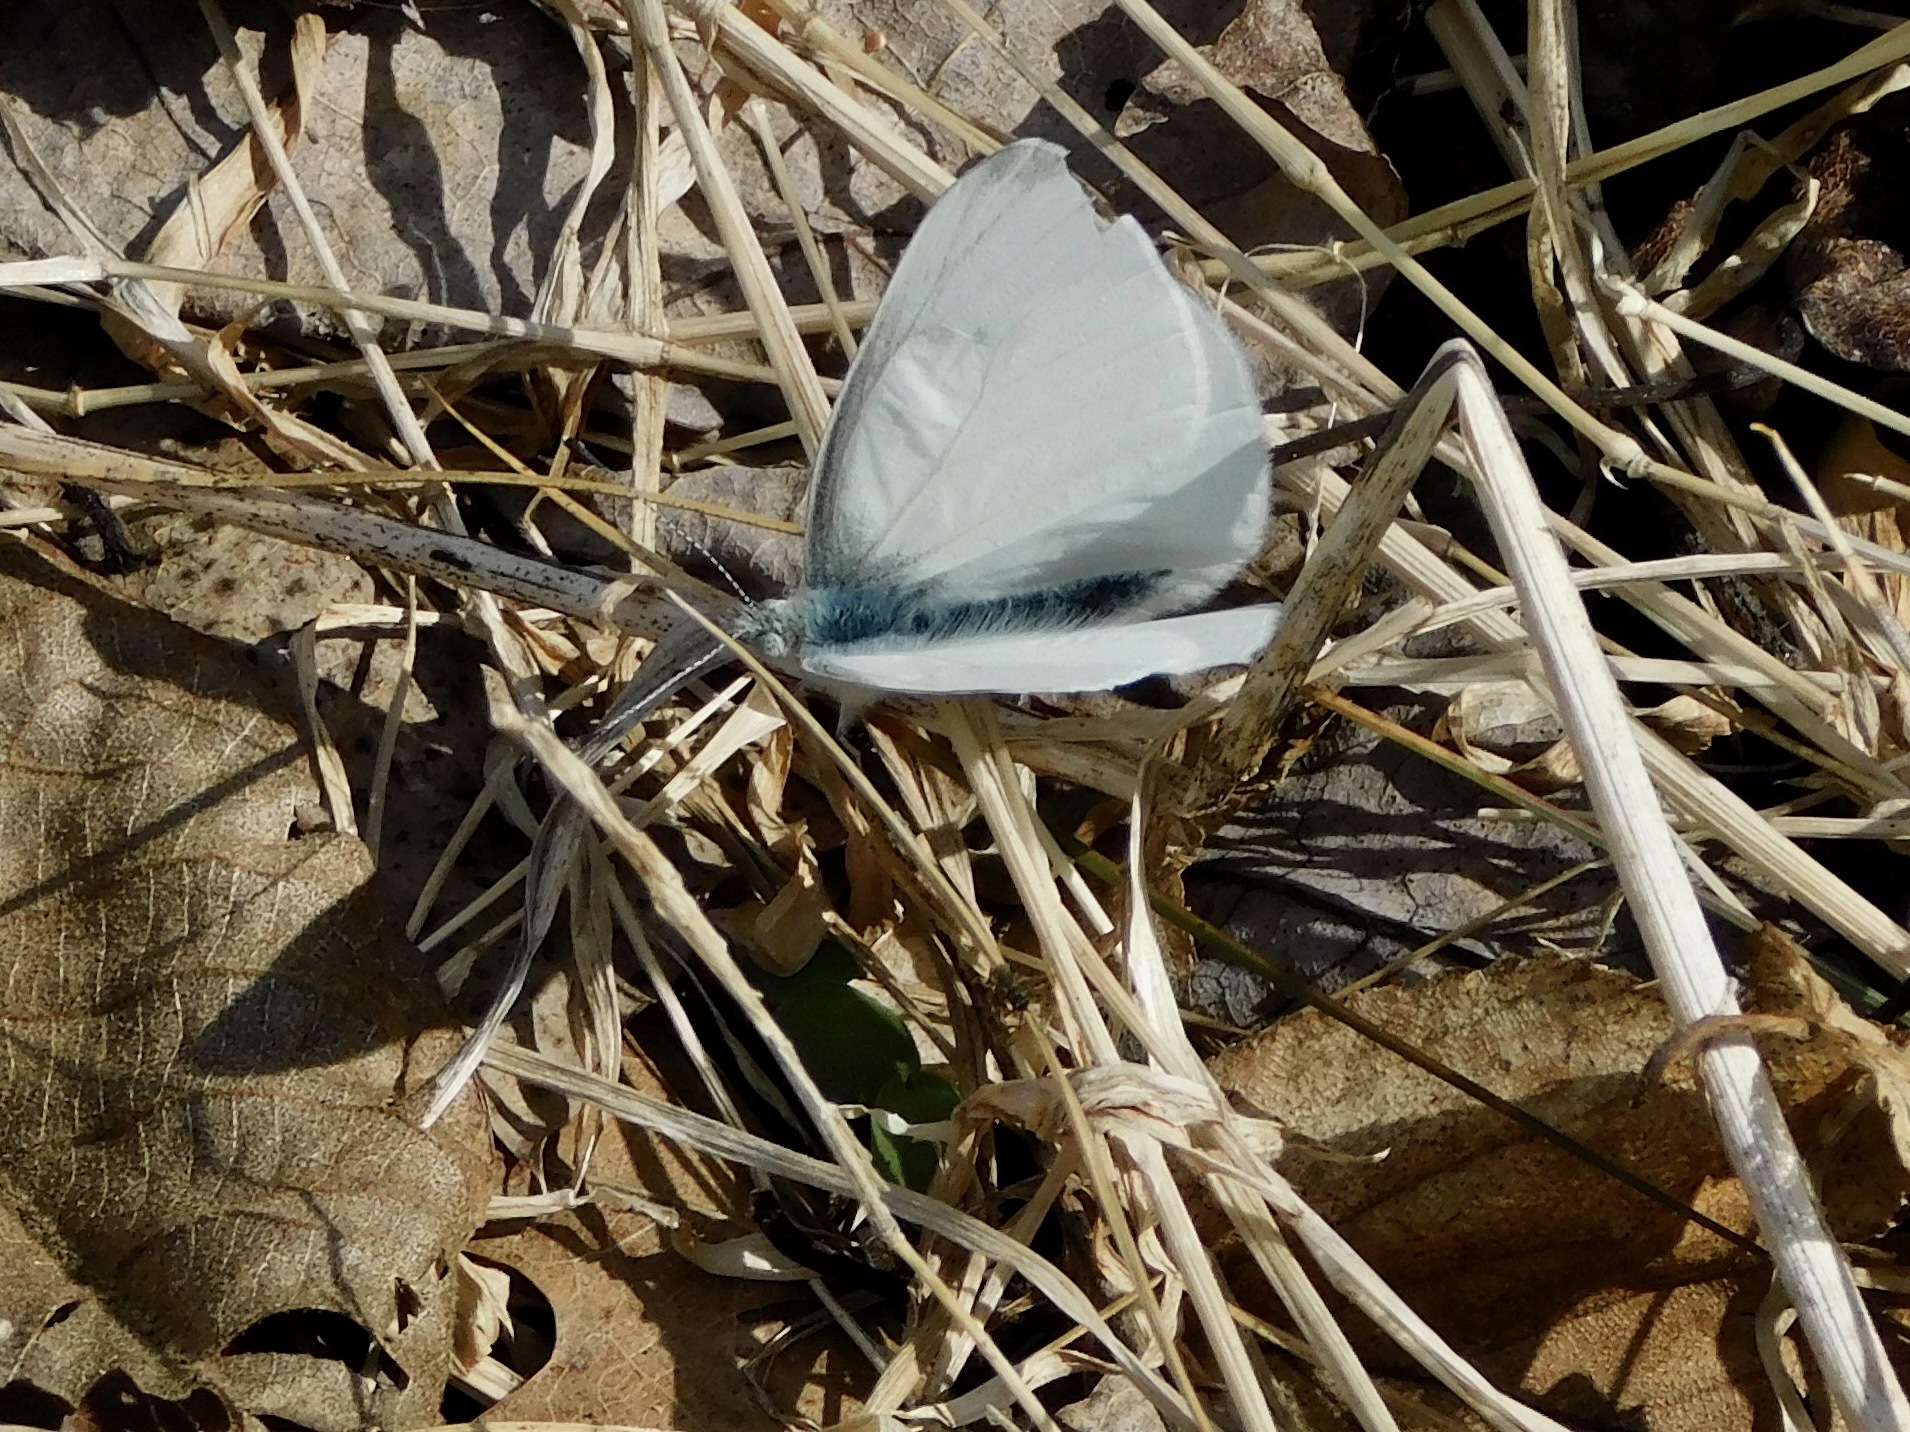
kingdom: Animalia
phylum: Arthropoda
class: Insecta
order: Lepidoptera
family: Pieridae
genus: Pieris
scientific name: Pieris virginiensis
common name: West virginia white
